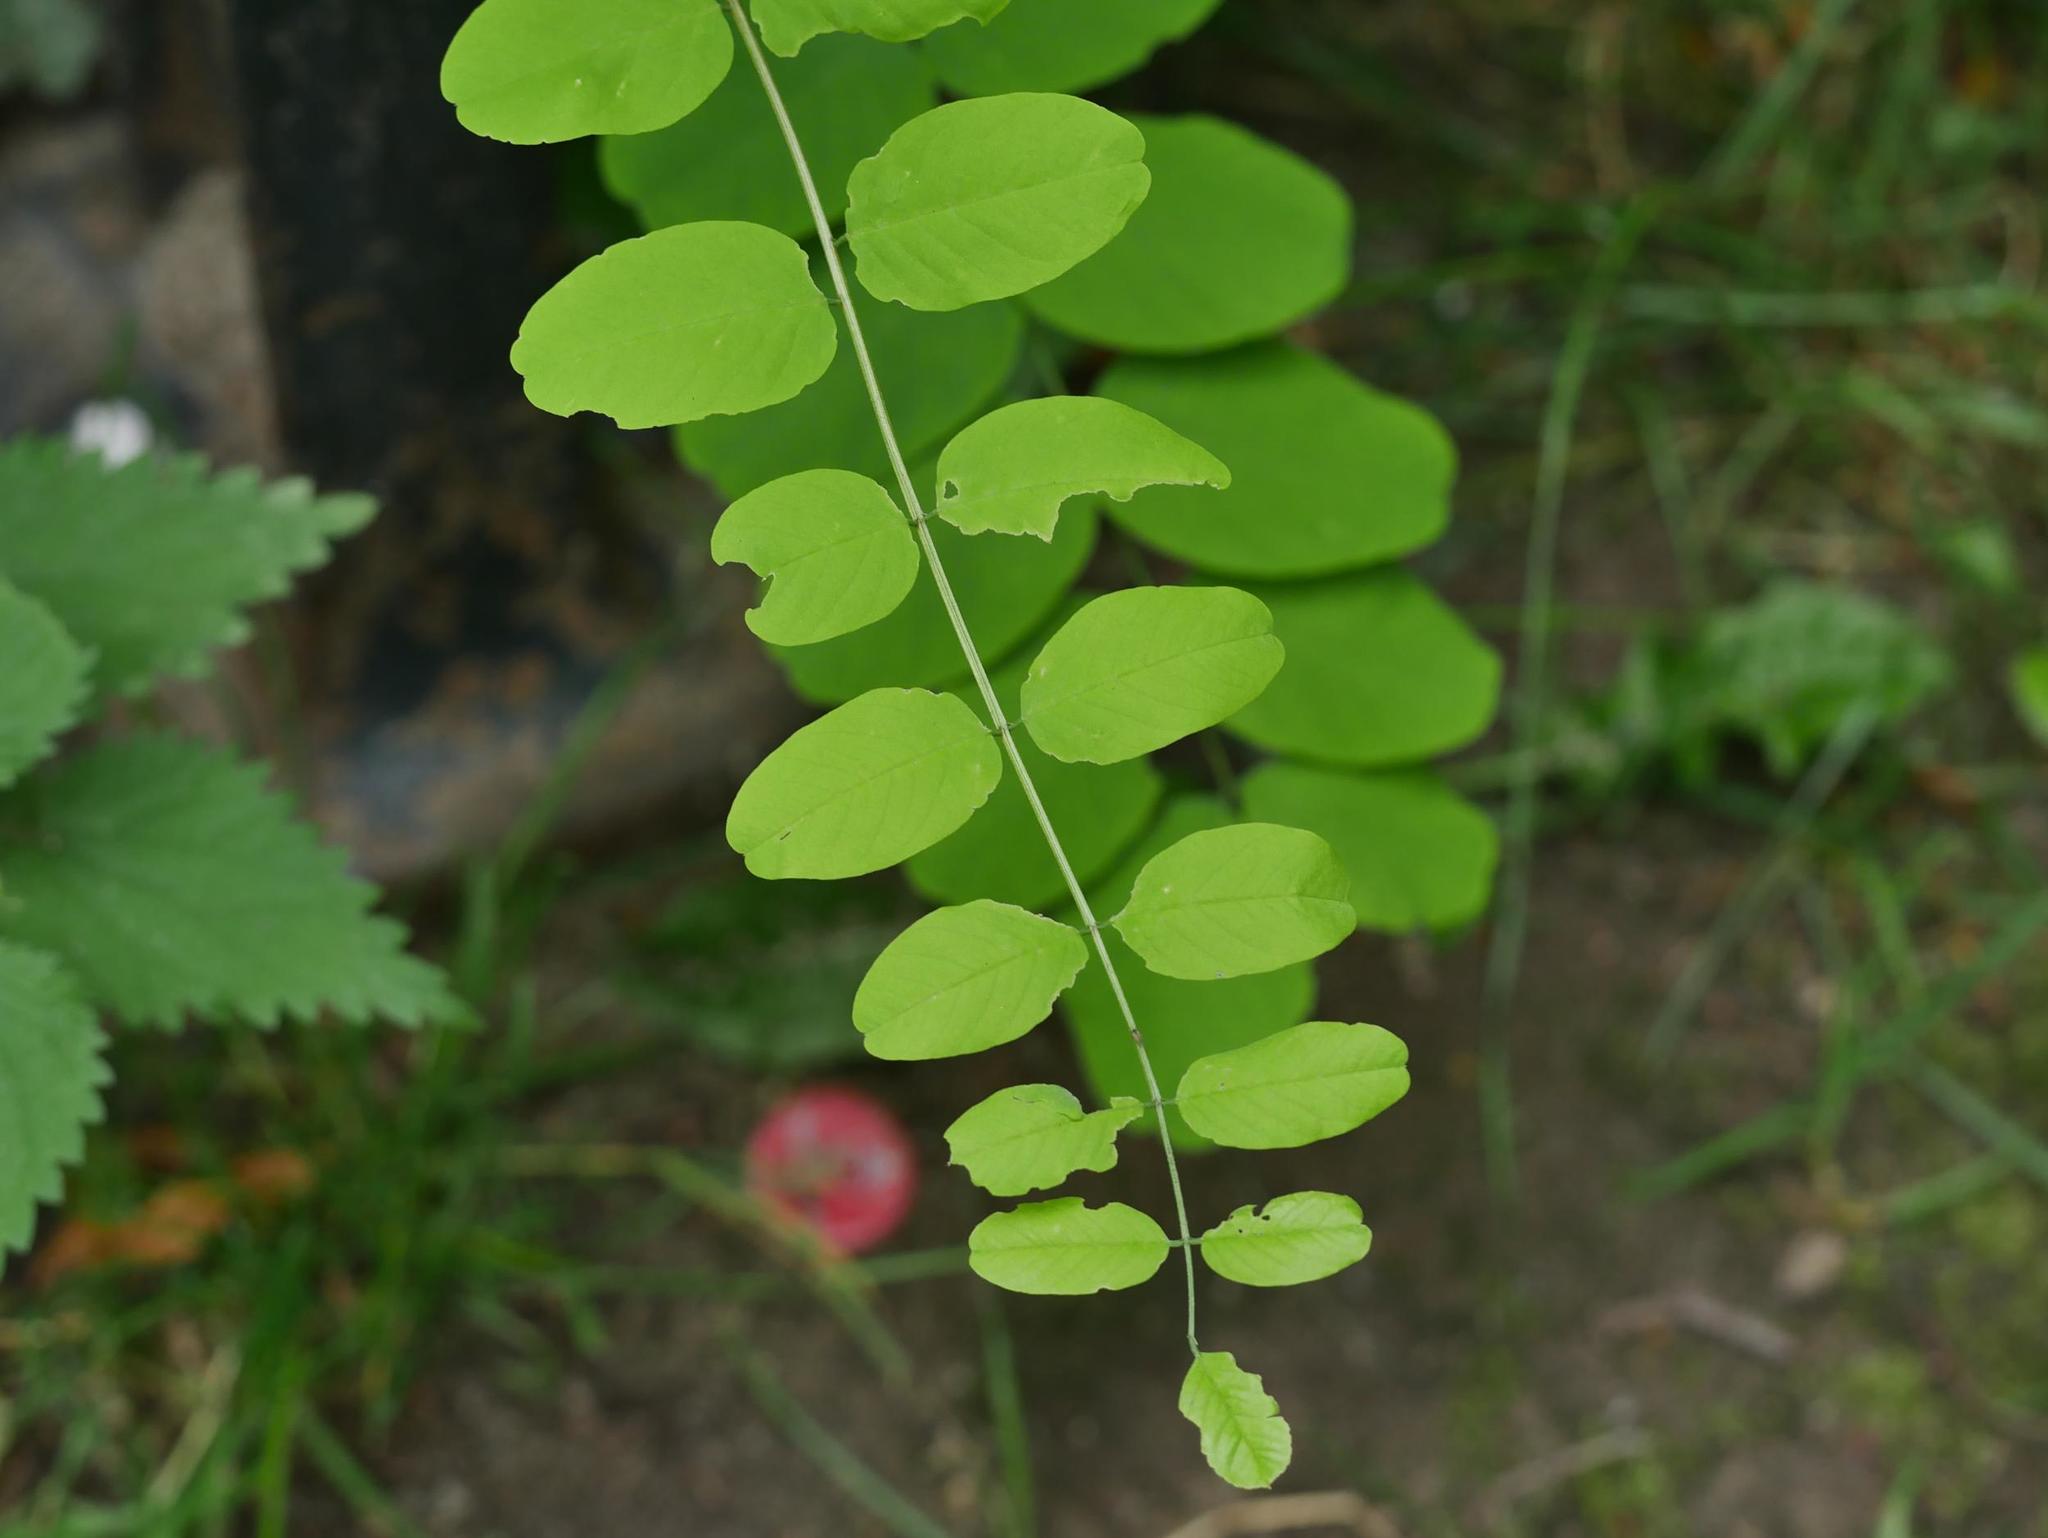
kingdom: Plantae
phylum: Tracheophyta
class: Magnoliopsida
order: Fabales
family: Fabaceae
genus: Robinia
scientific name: Robinia pseudoacacia
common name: Black locust
